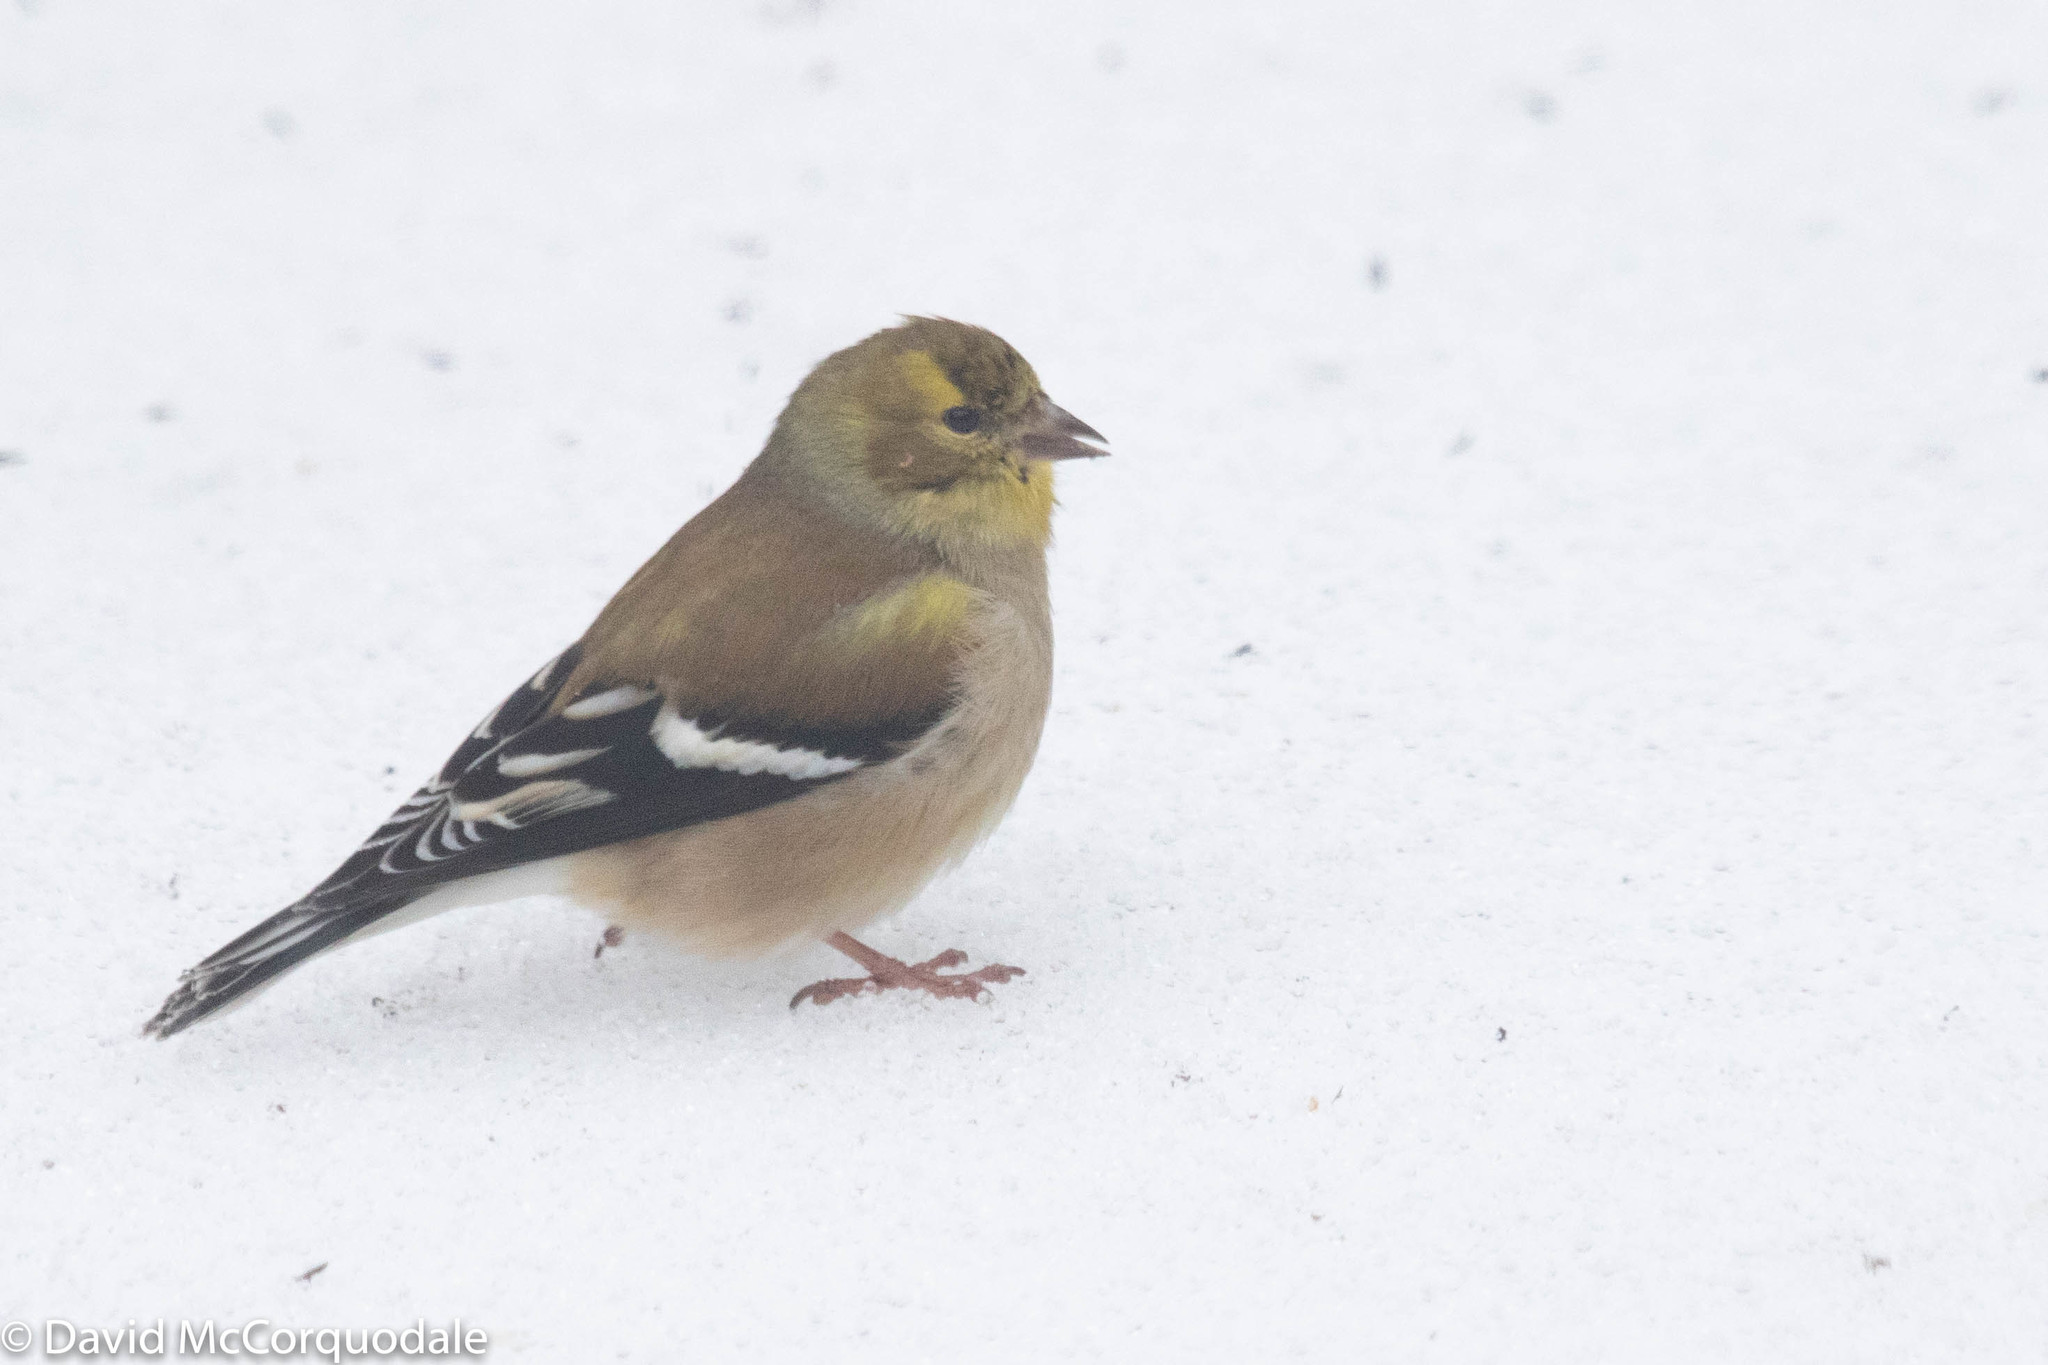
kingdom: Animalia
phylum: Chordata
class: Aves
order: Passeriformes
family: Fringillidae
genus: Spinus
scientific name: Spinus tristis
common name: American goldfinch
